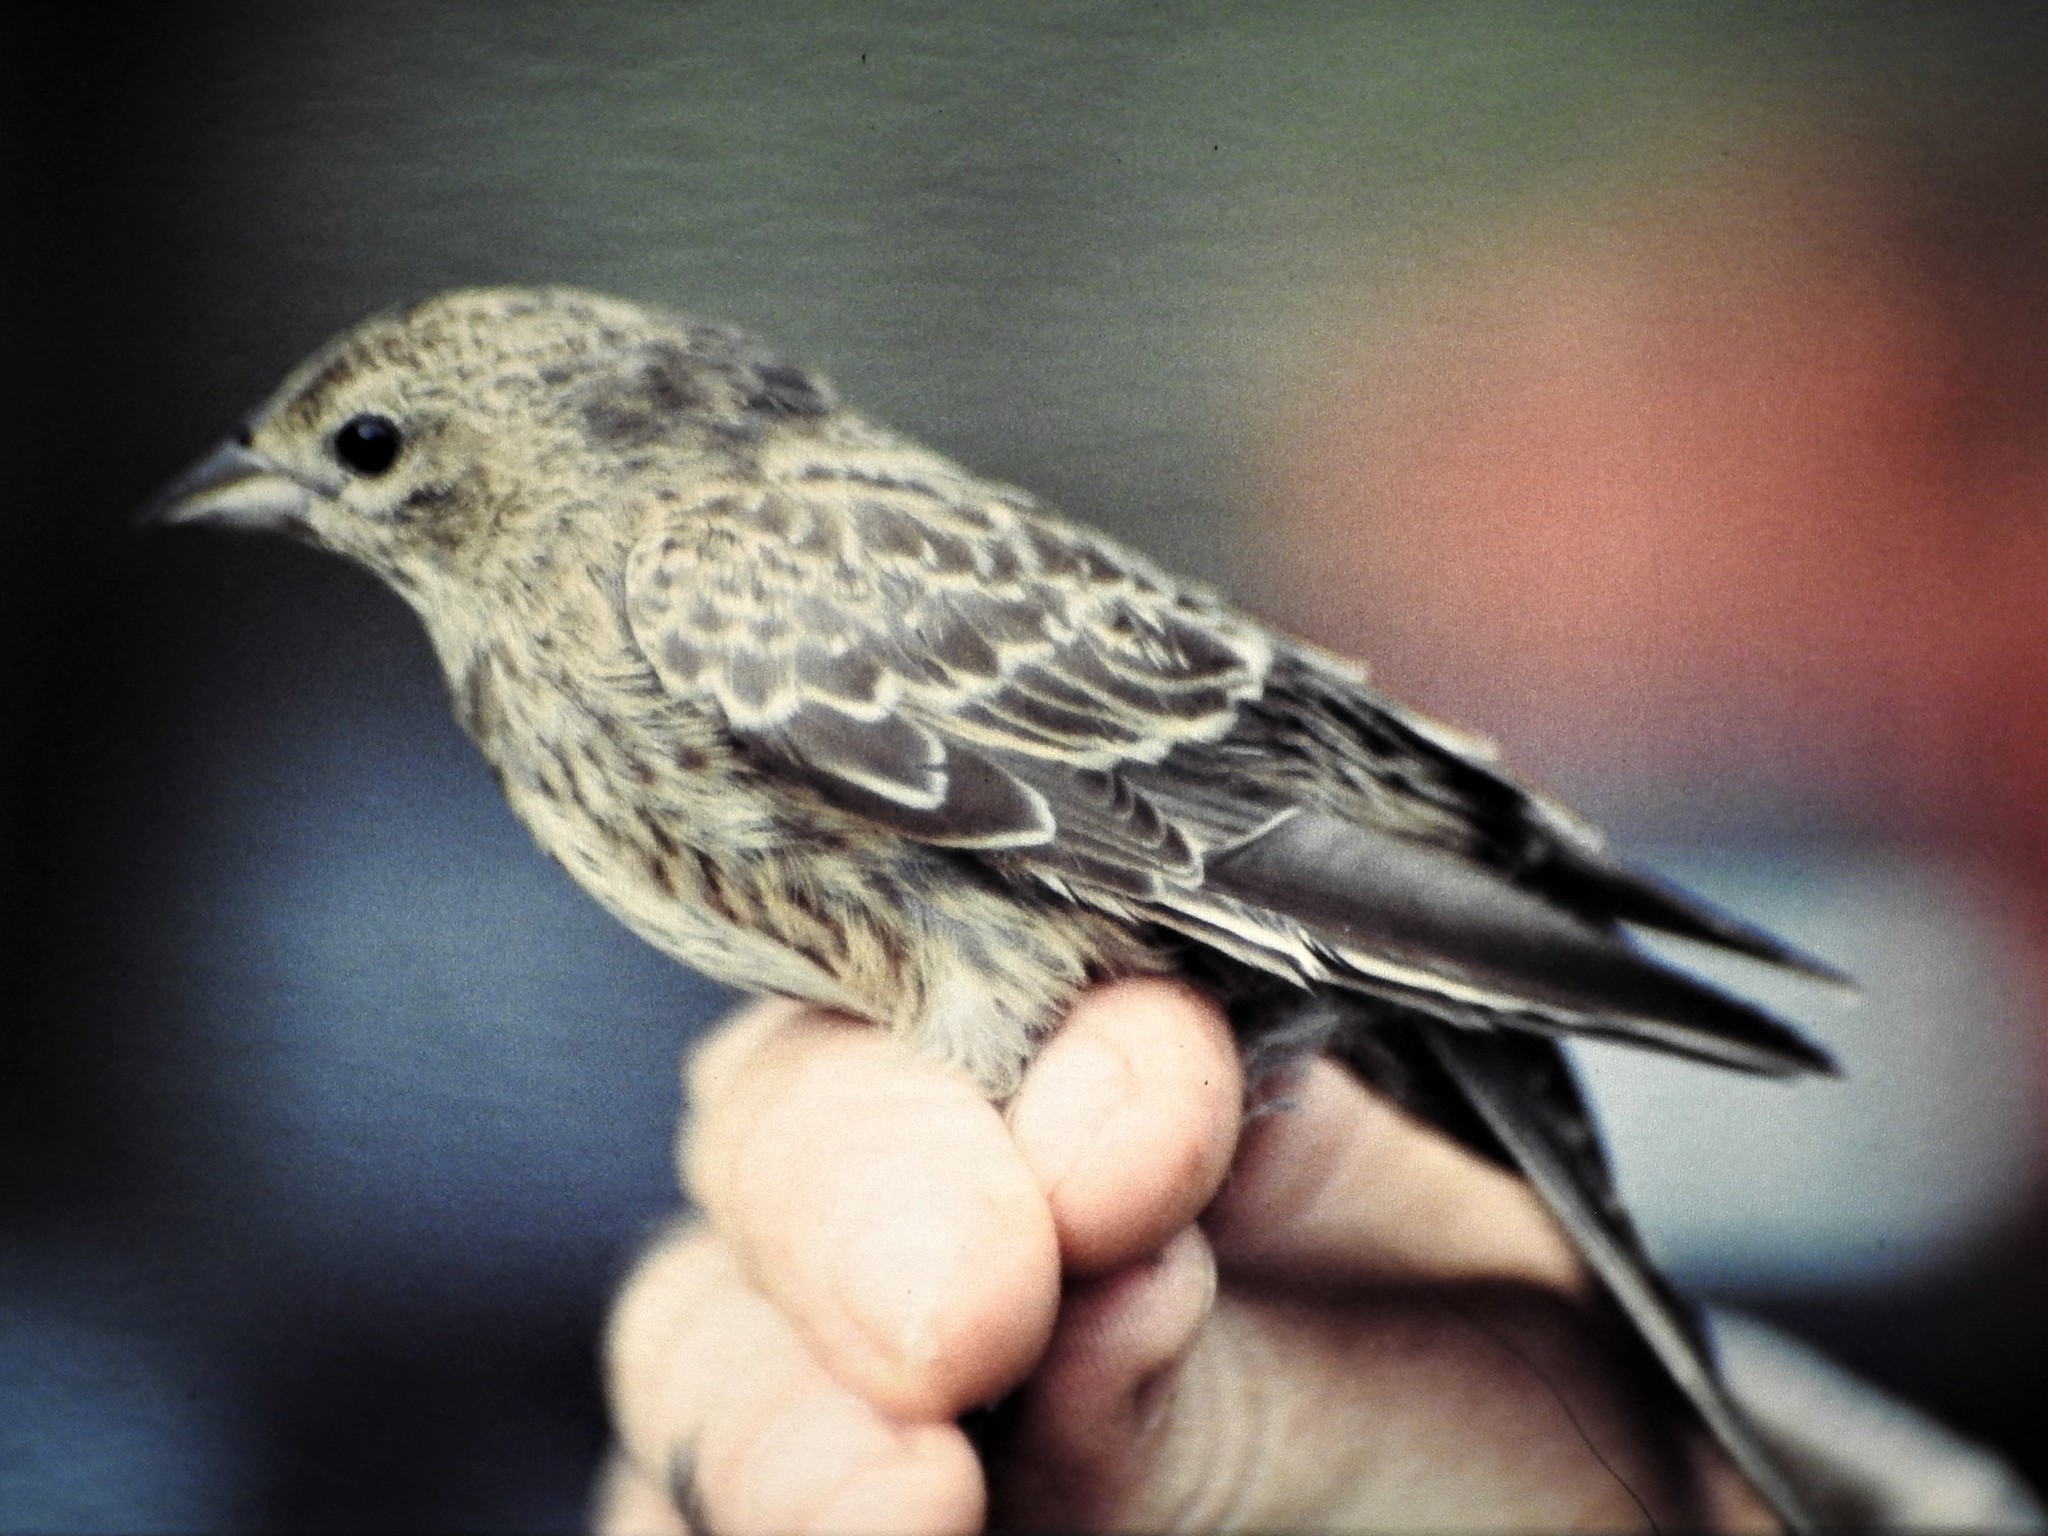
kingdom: Animalia
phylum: Chordata
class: Aves
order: Passeriformes
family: Icteridae
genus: Molothrus
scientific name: Molothrus ater
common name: Brown-headed cowbird
